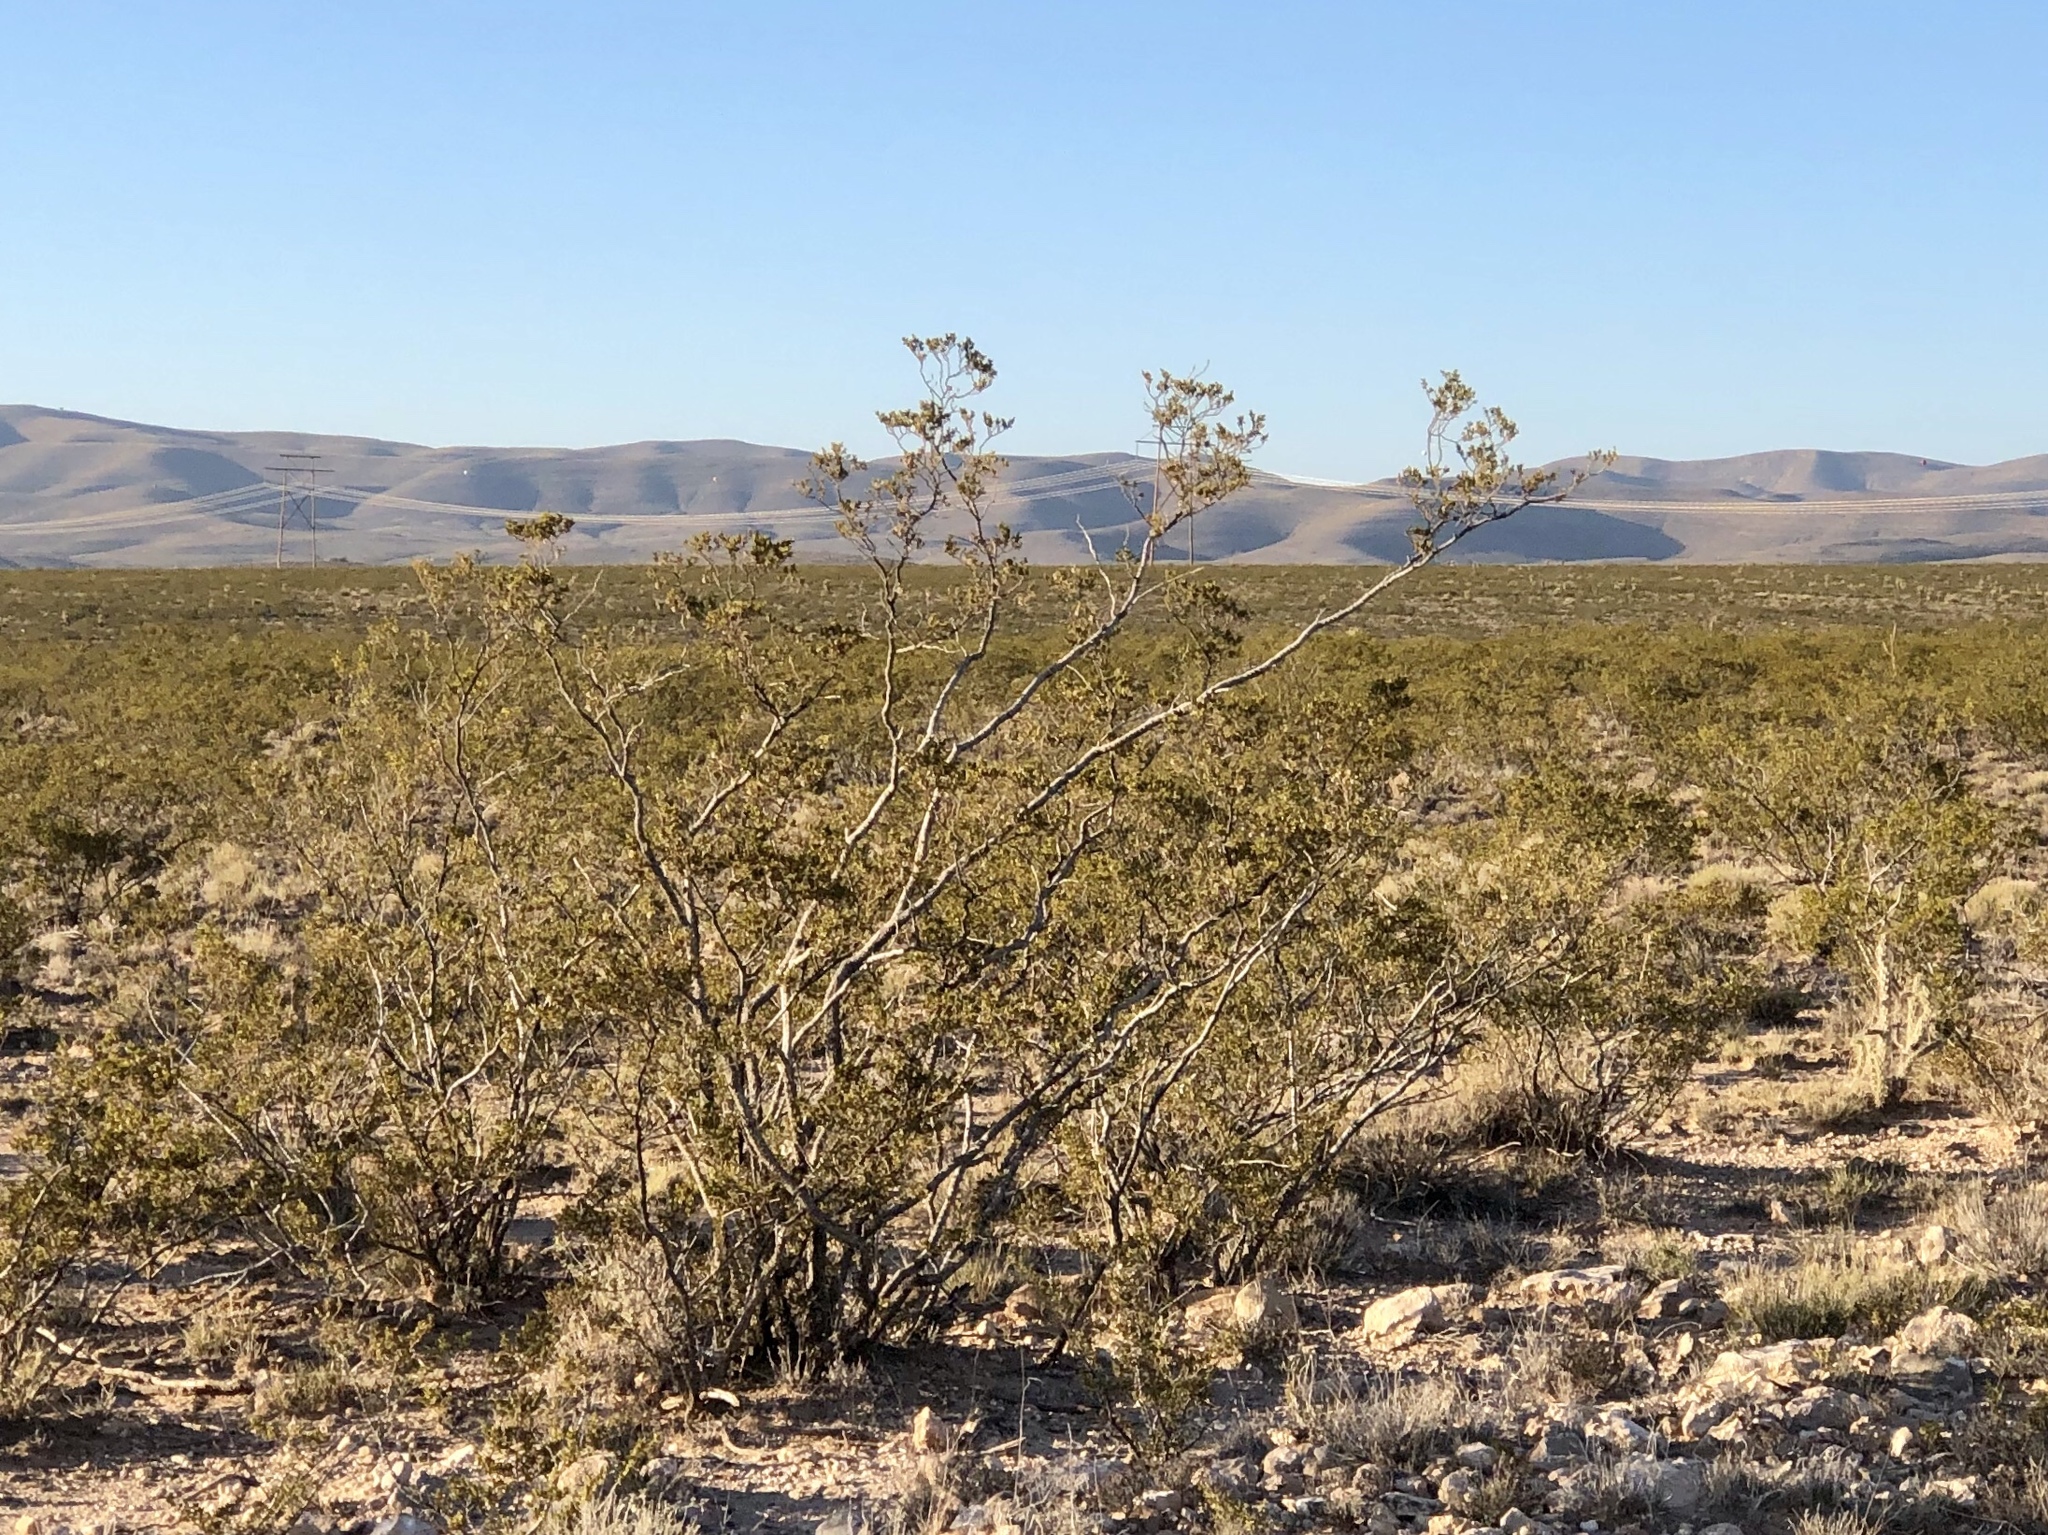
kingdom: Plantae
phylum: Tracheophyta
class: Magnoliopsida
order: Zygophyllales
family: Zygophyllaceae
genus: Larrea
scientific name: Larrea tridentata
